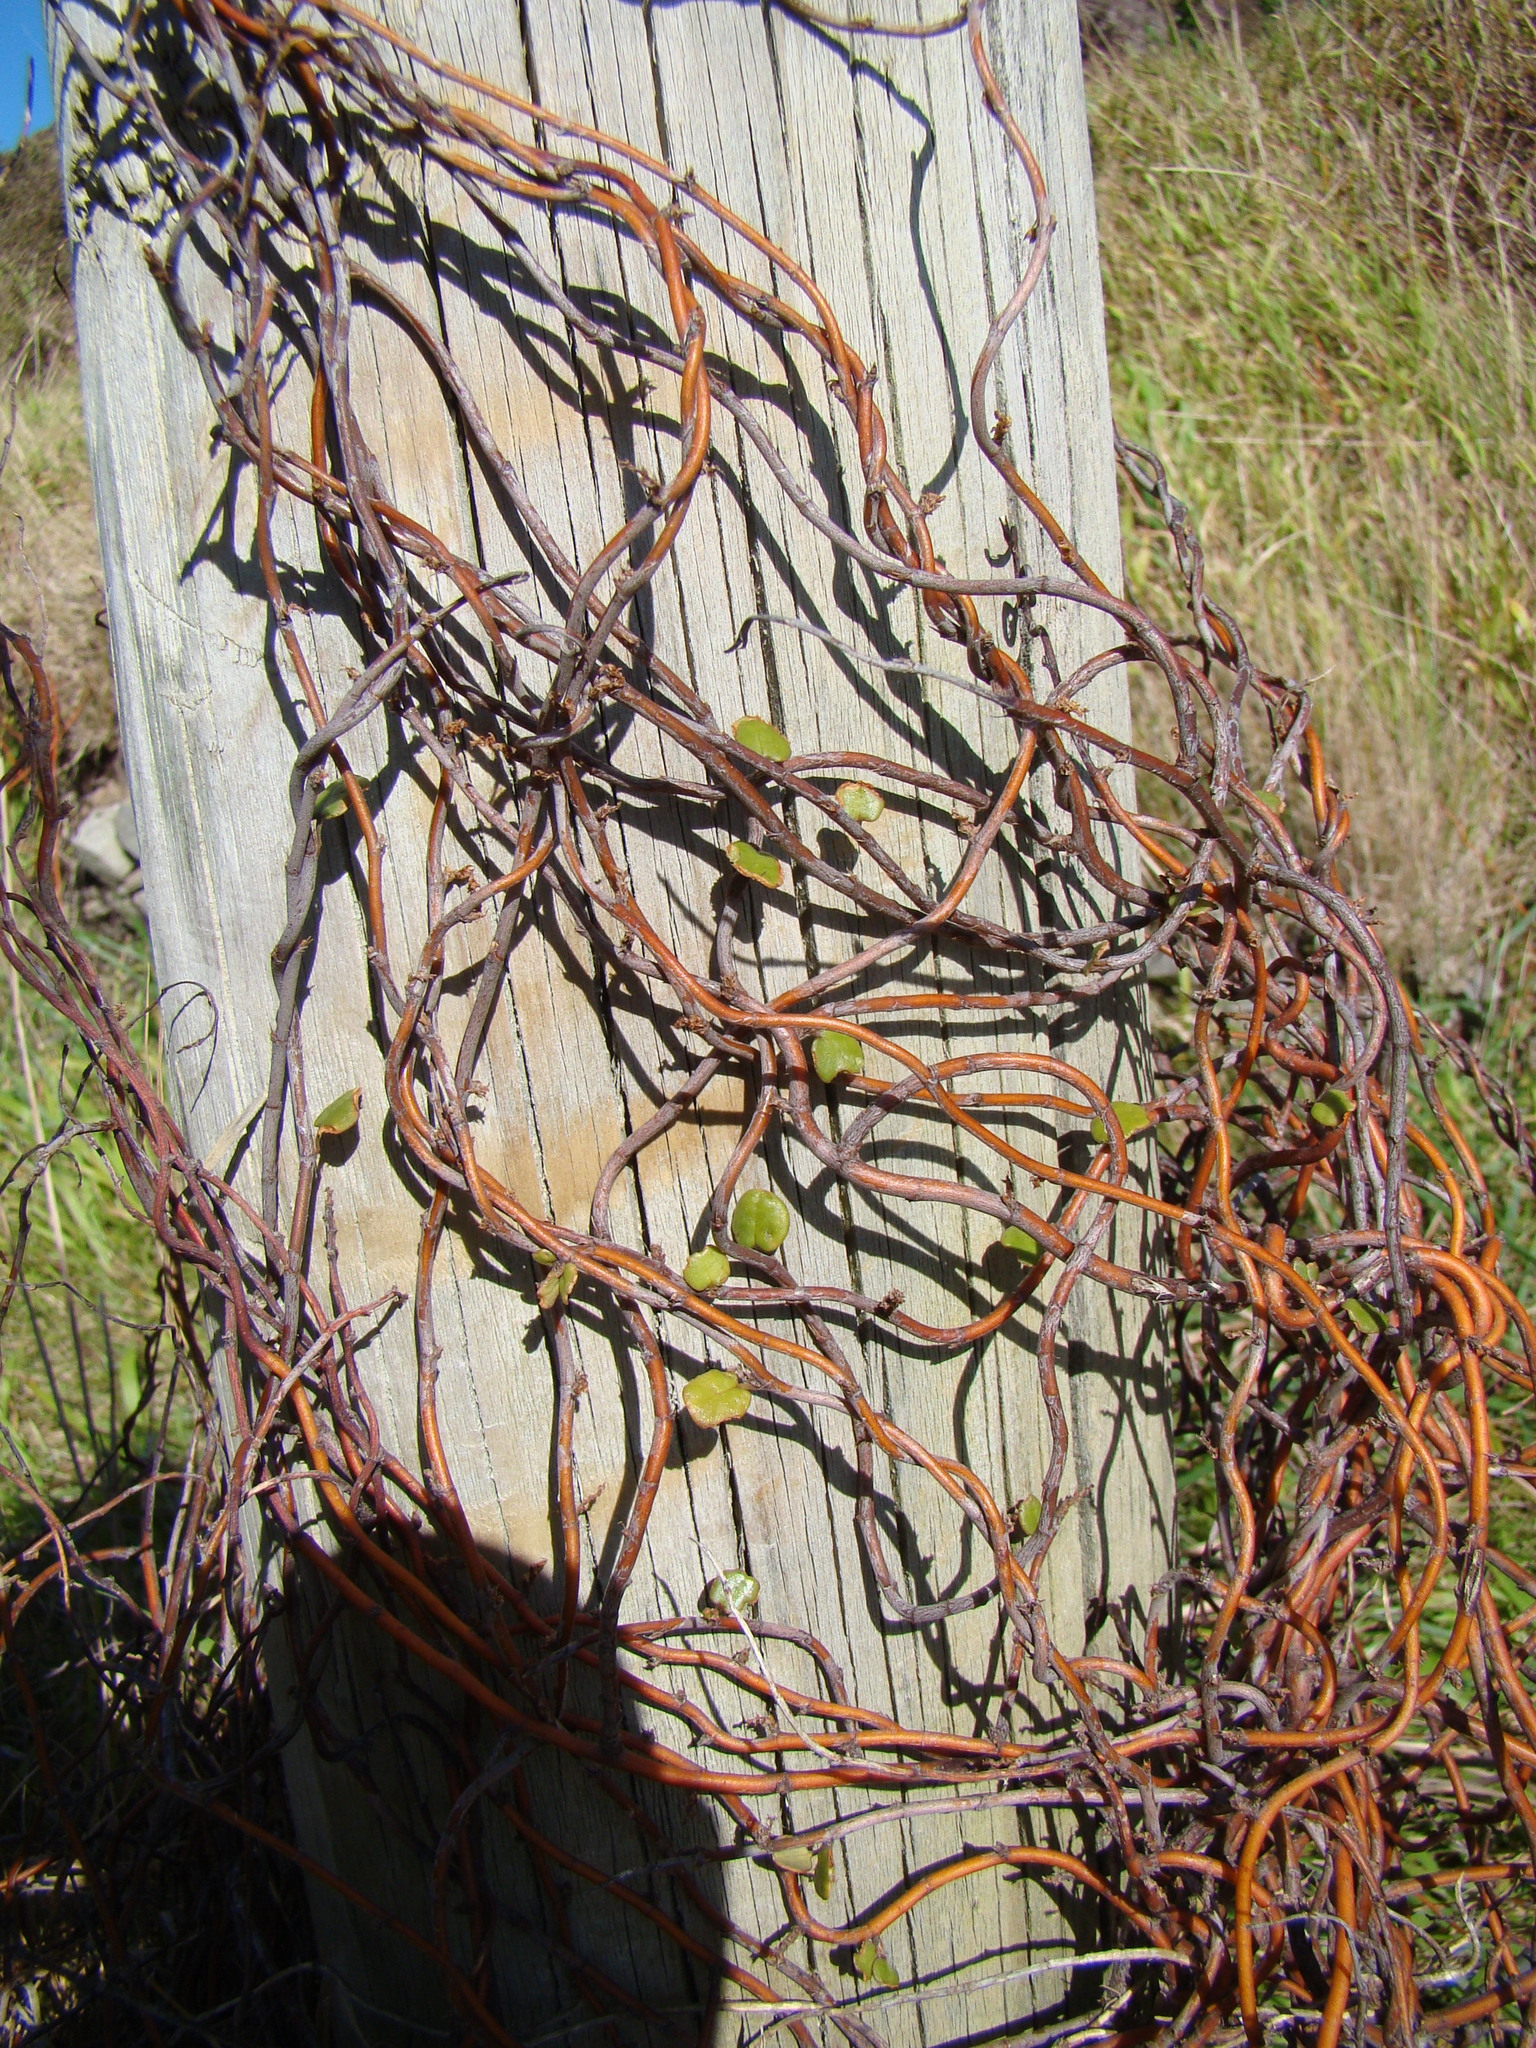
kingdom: Plantae
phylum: Tracheophyta
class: Magnoliopsida
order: Caryophyllales
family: Polygonaceae
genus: Muehlenbeckia
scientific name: Muehlenbeckia complexa
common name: Wireplant
